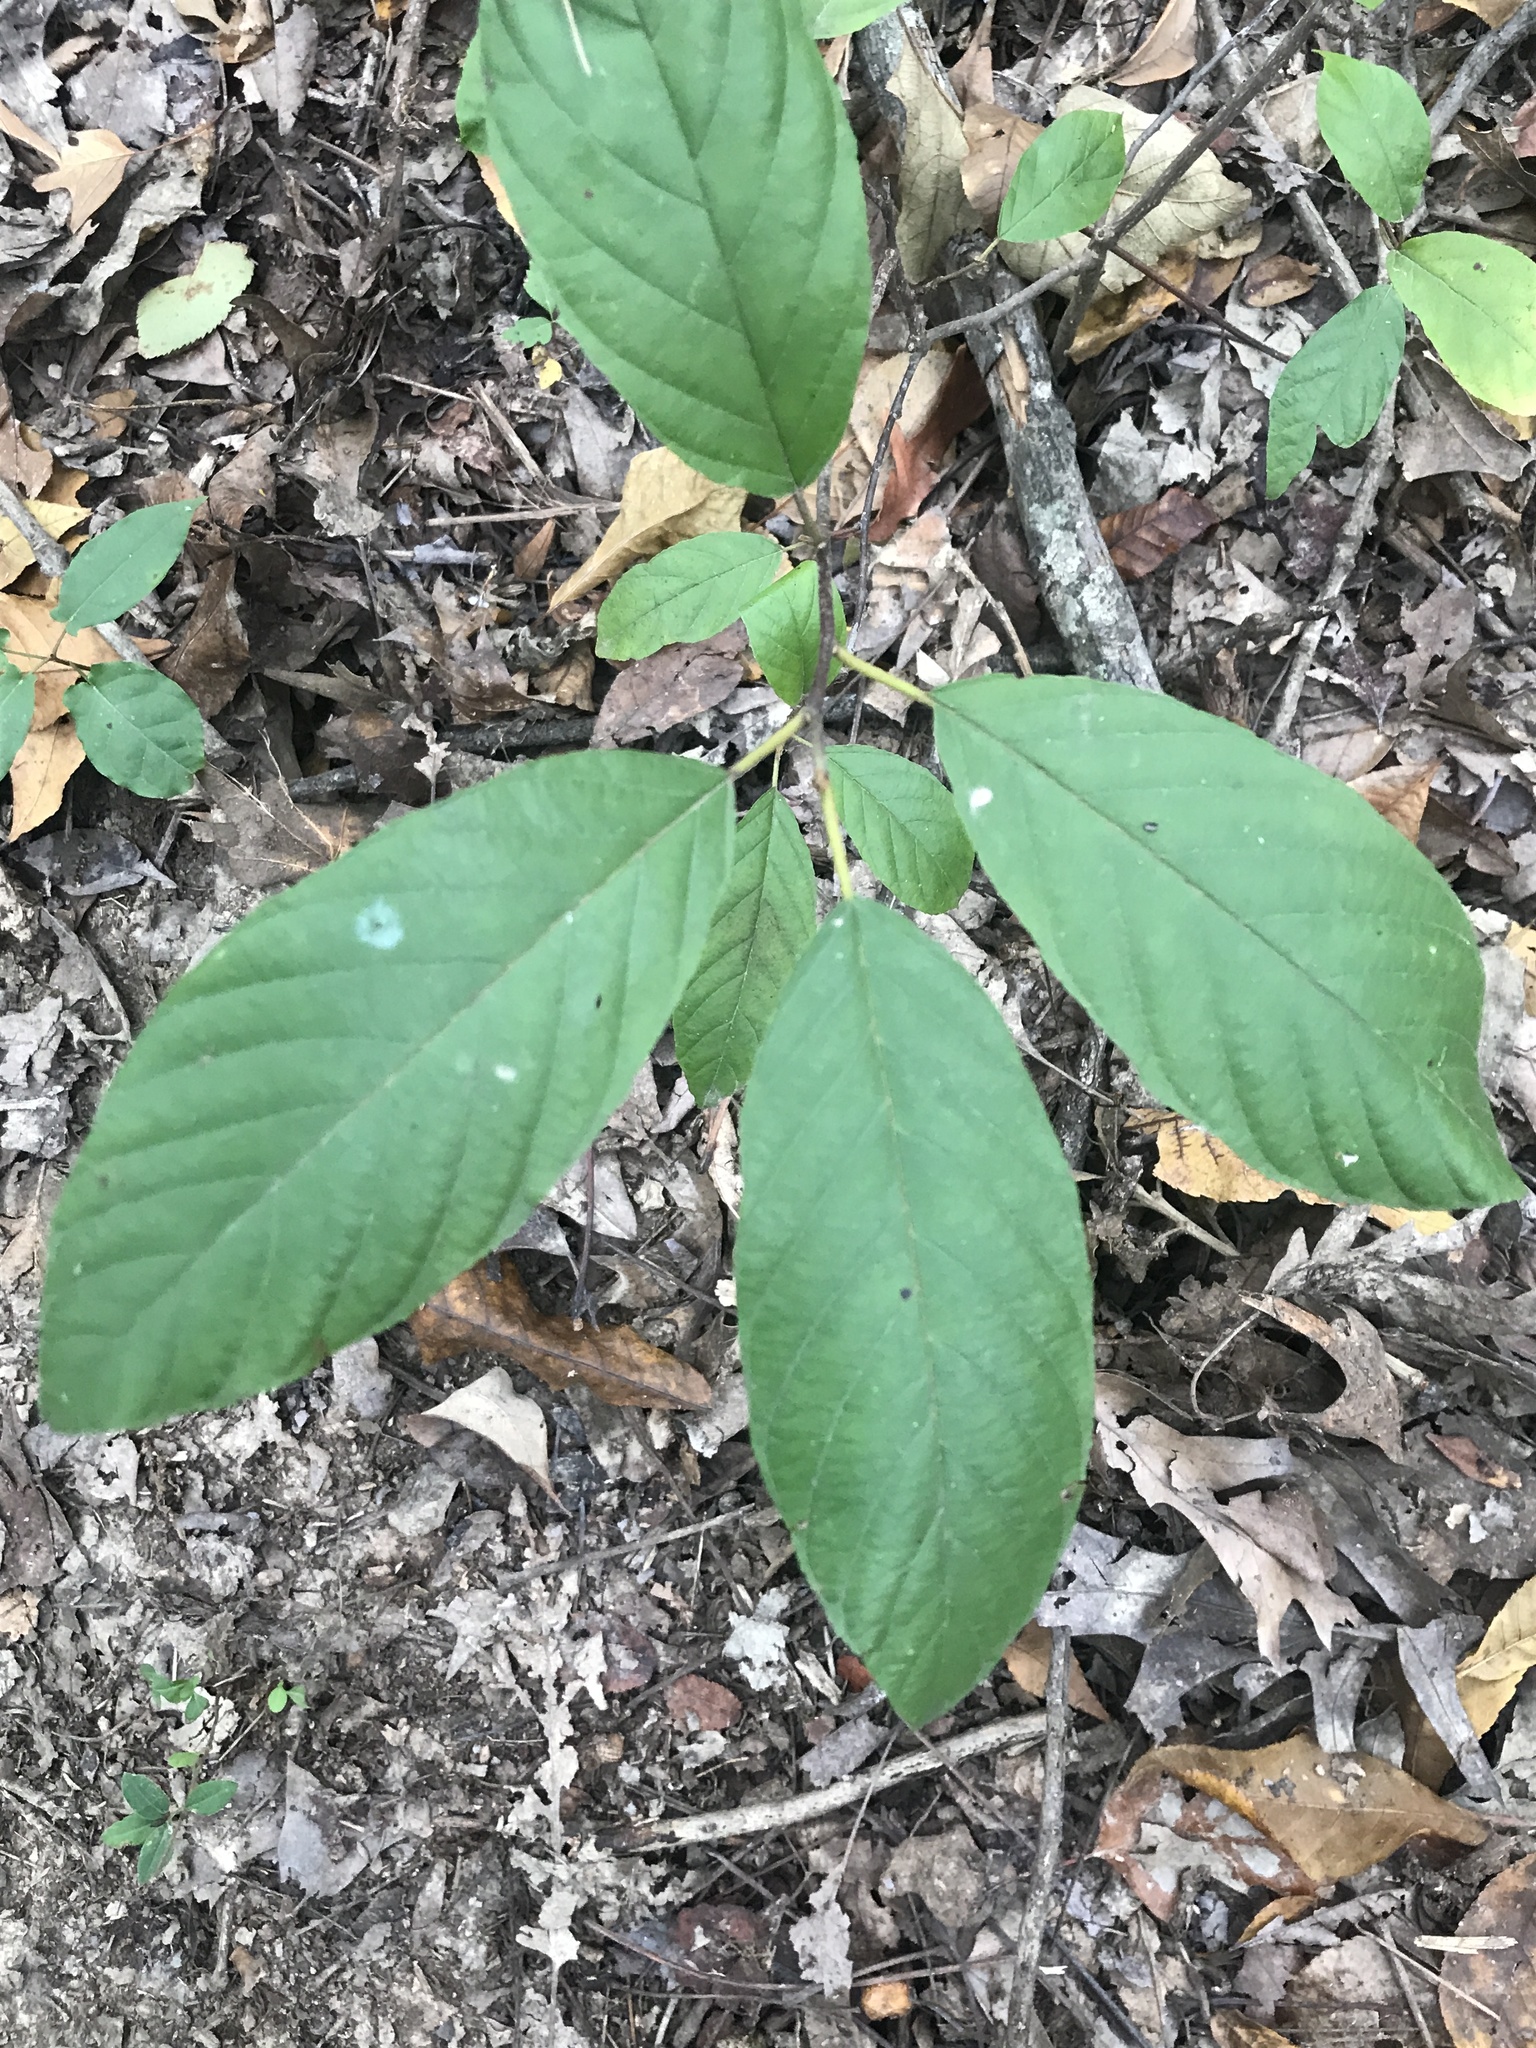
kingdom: Plantae
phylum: Tracheophyta
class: Magnoliopsida
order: Rosales
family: Rhamnaceae
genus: Frangula
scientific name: Frangula caroliniana
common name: Carolina buckthorn
